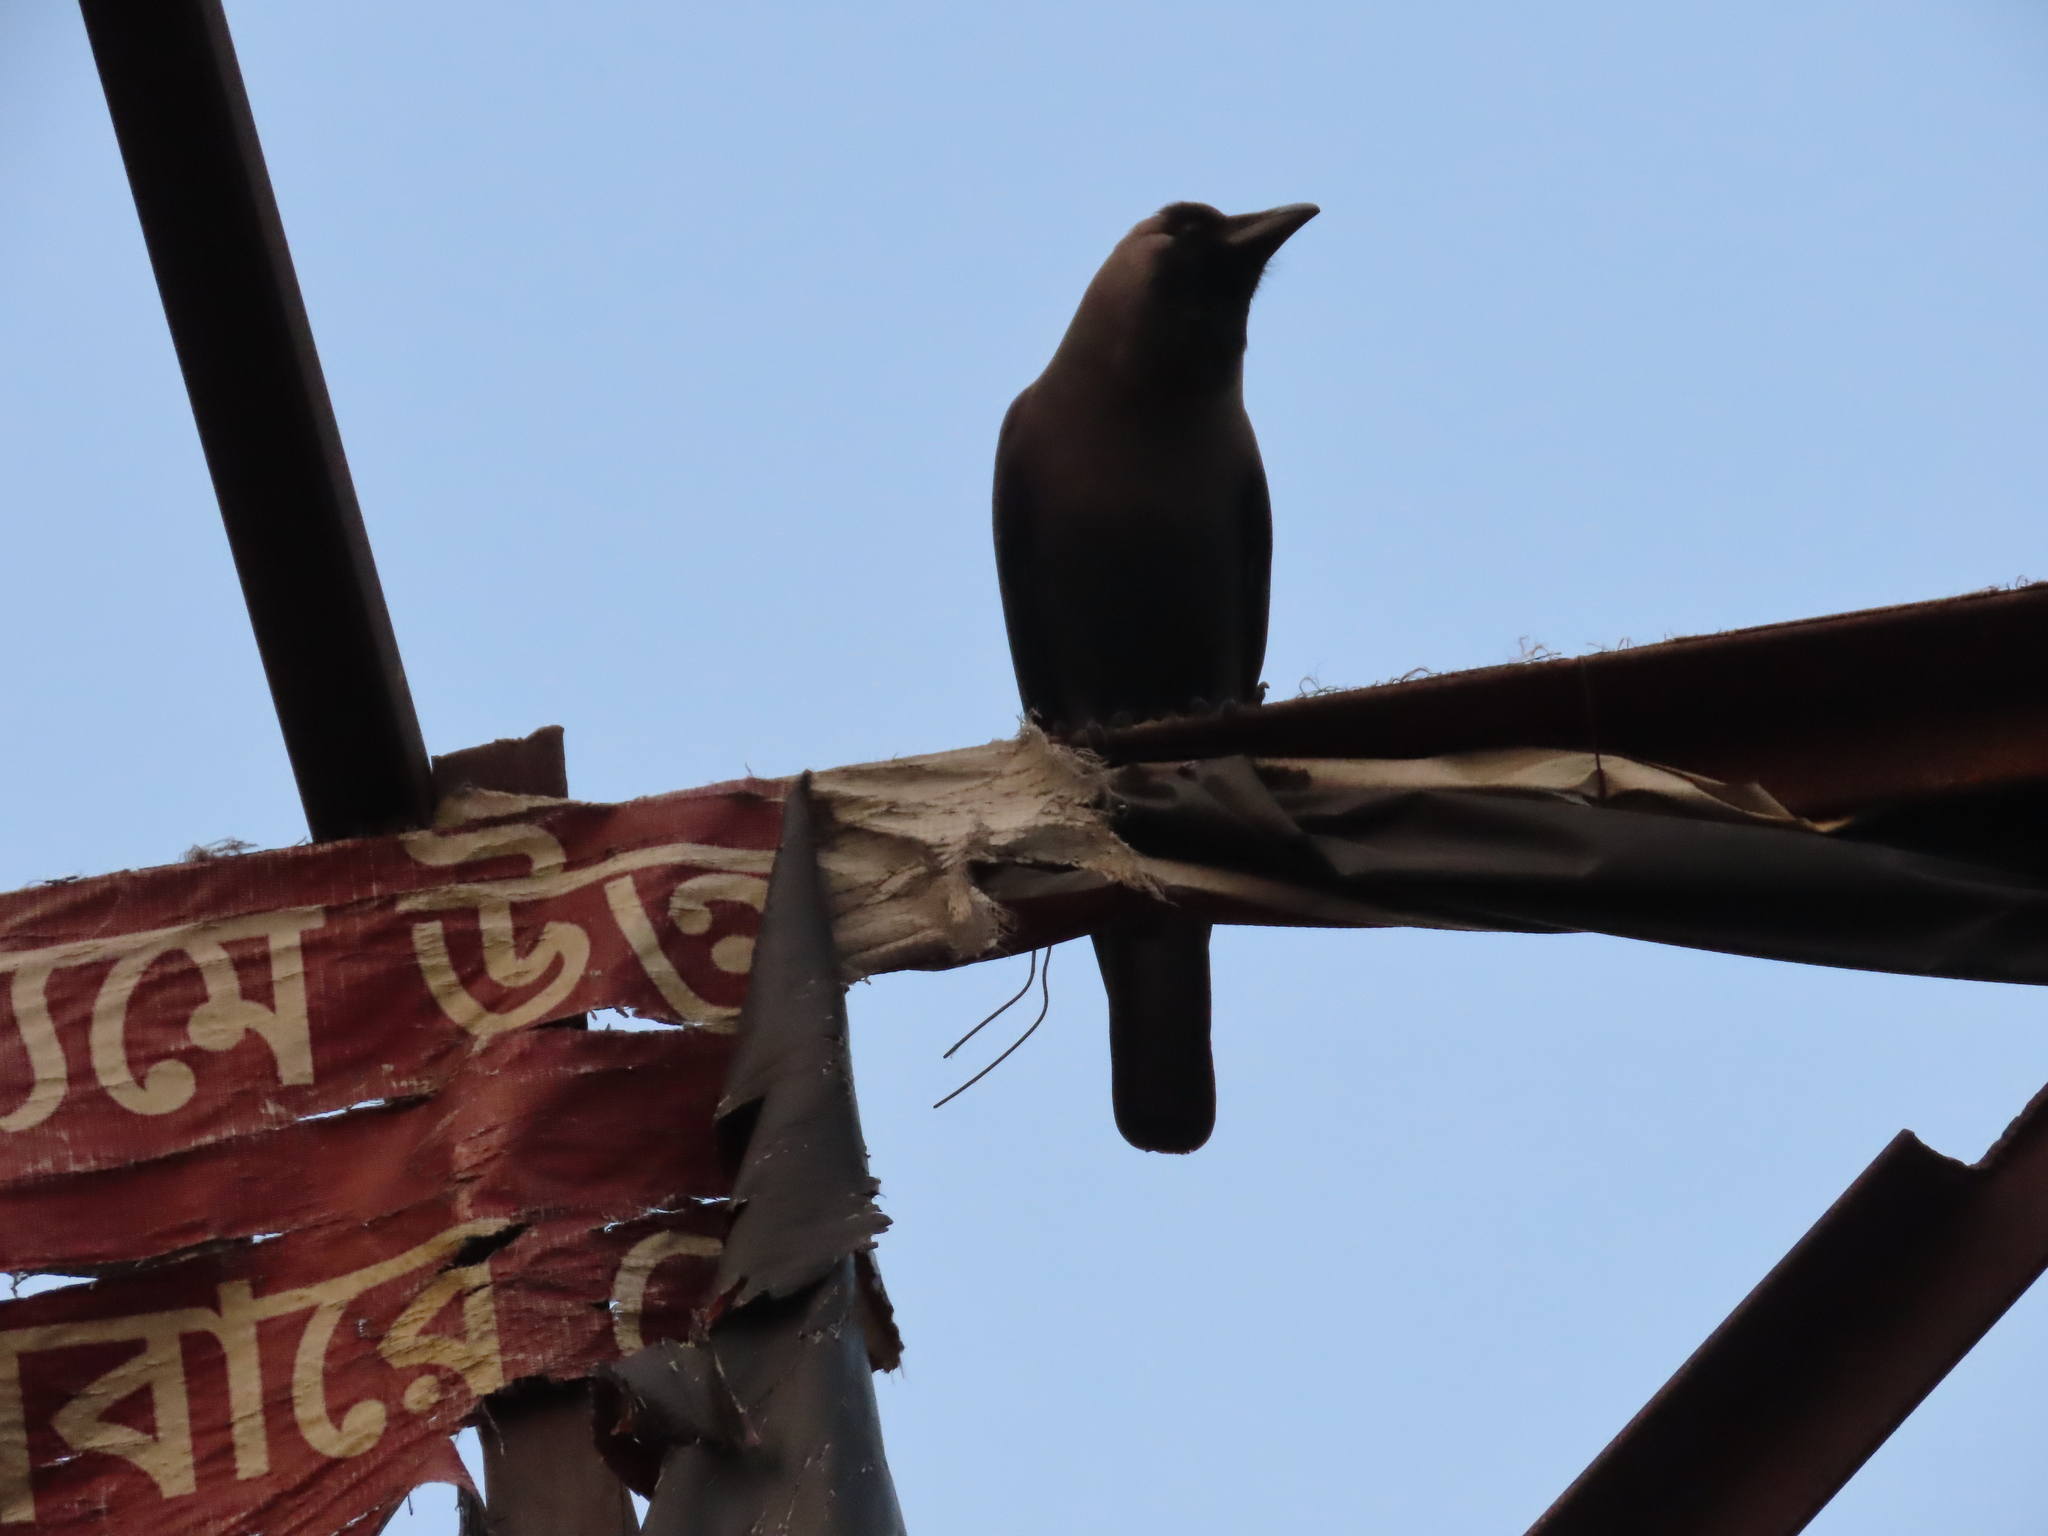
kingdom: Animalia
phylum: Chordata
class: Aves
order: Passeriformes
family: Corvidae
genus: Corvus
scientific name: Corvus splendens
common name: House crow
